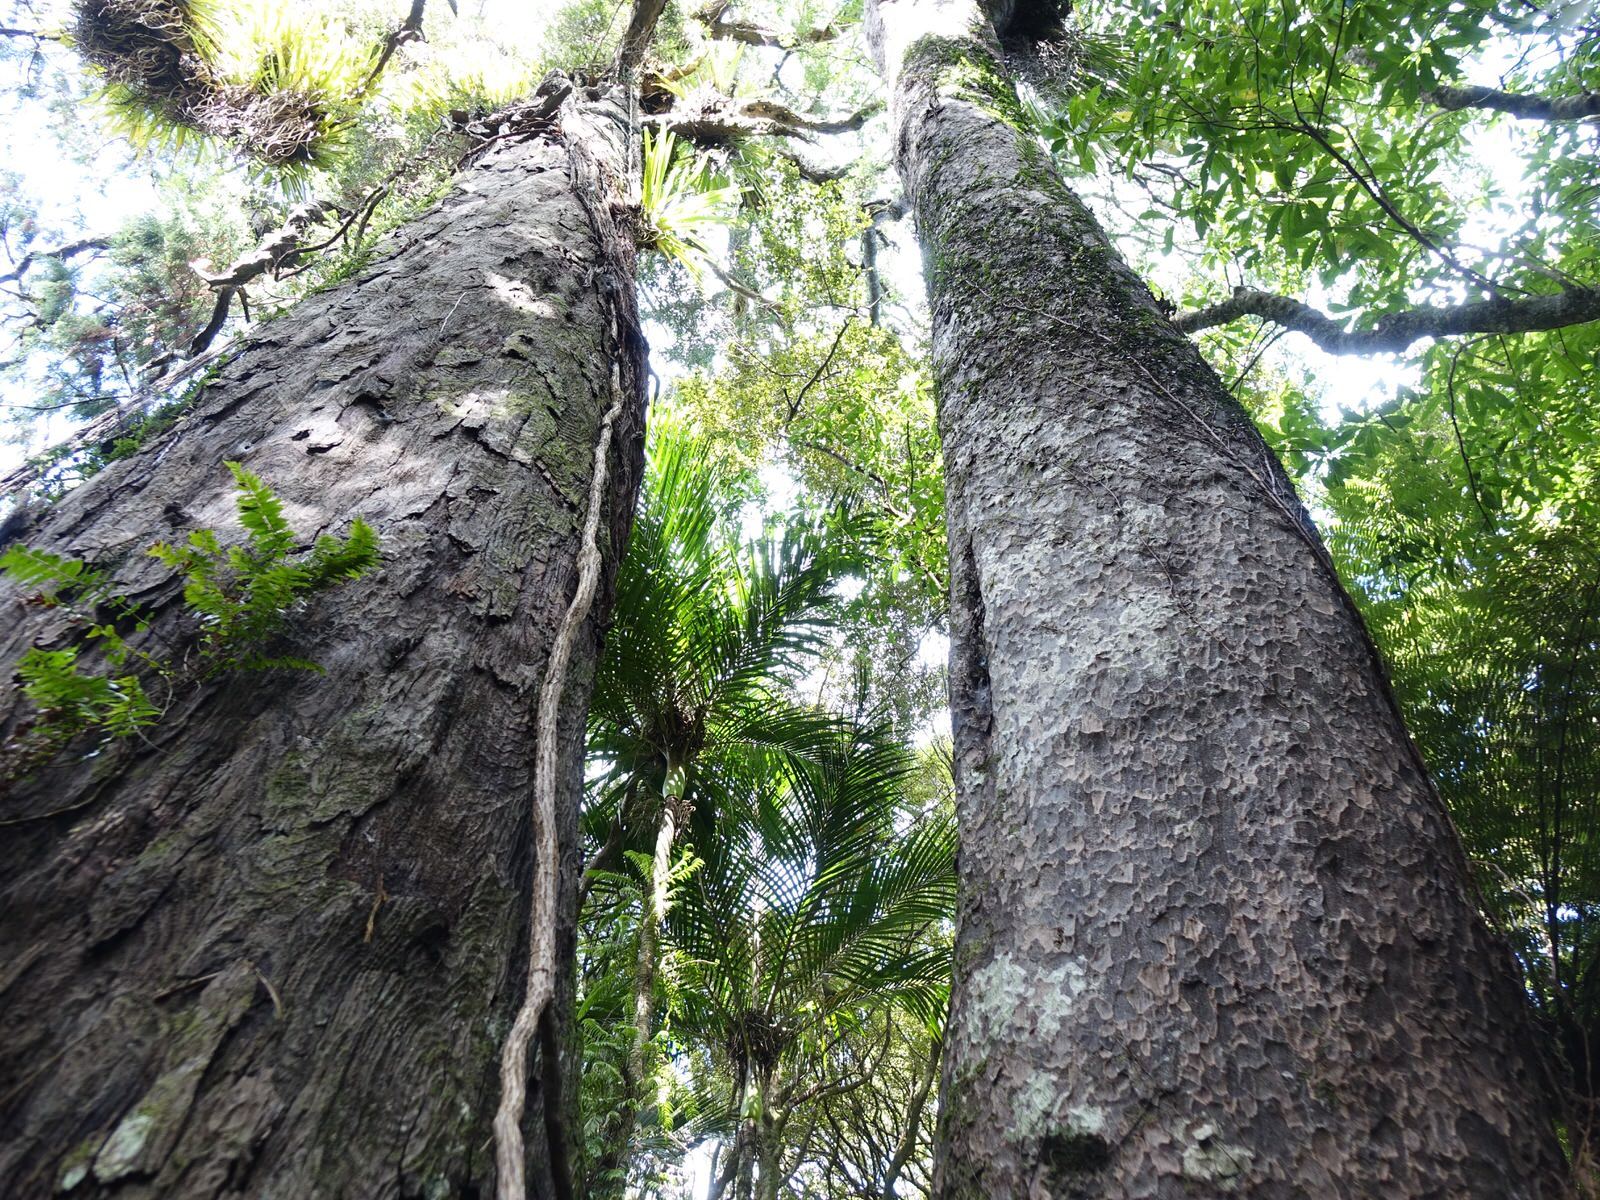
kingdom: Plantae
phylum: Tracheophyta
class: Pinopsida
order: Pinales
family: Podocarpaceae
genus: Prumnopitys
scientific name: Prumnopitys taxifolia
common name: Matai
